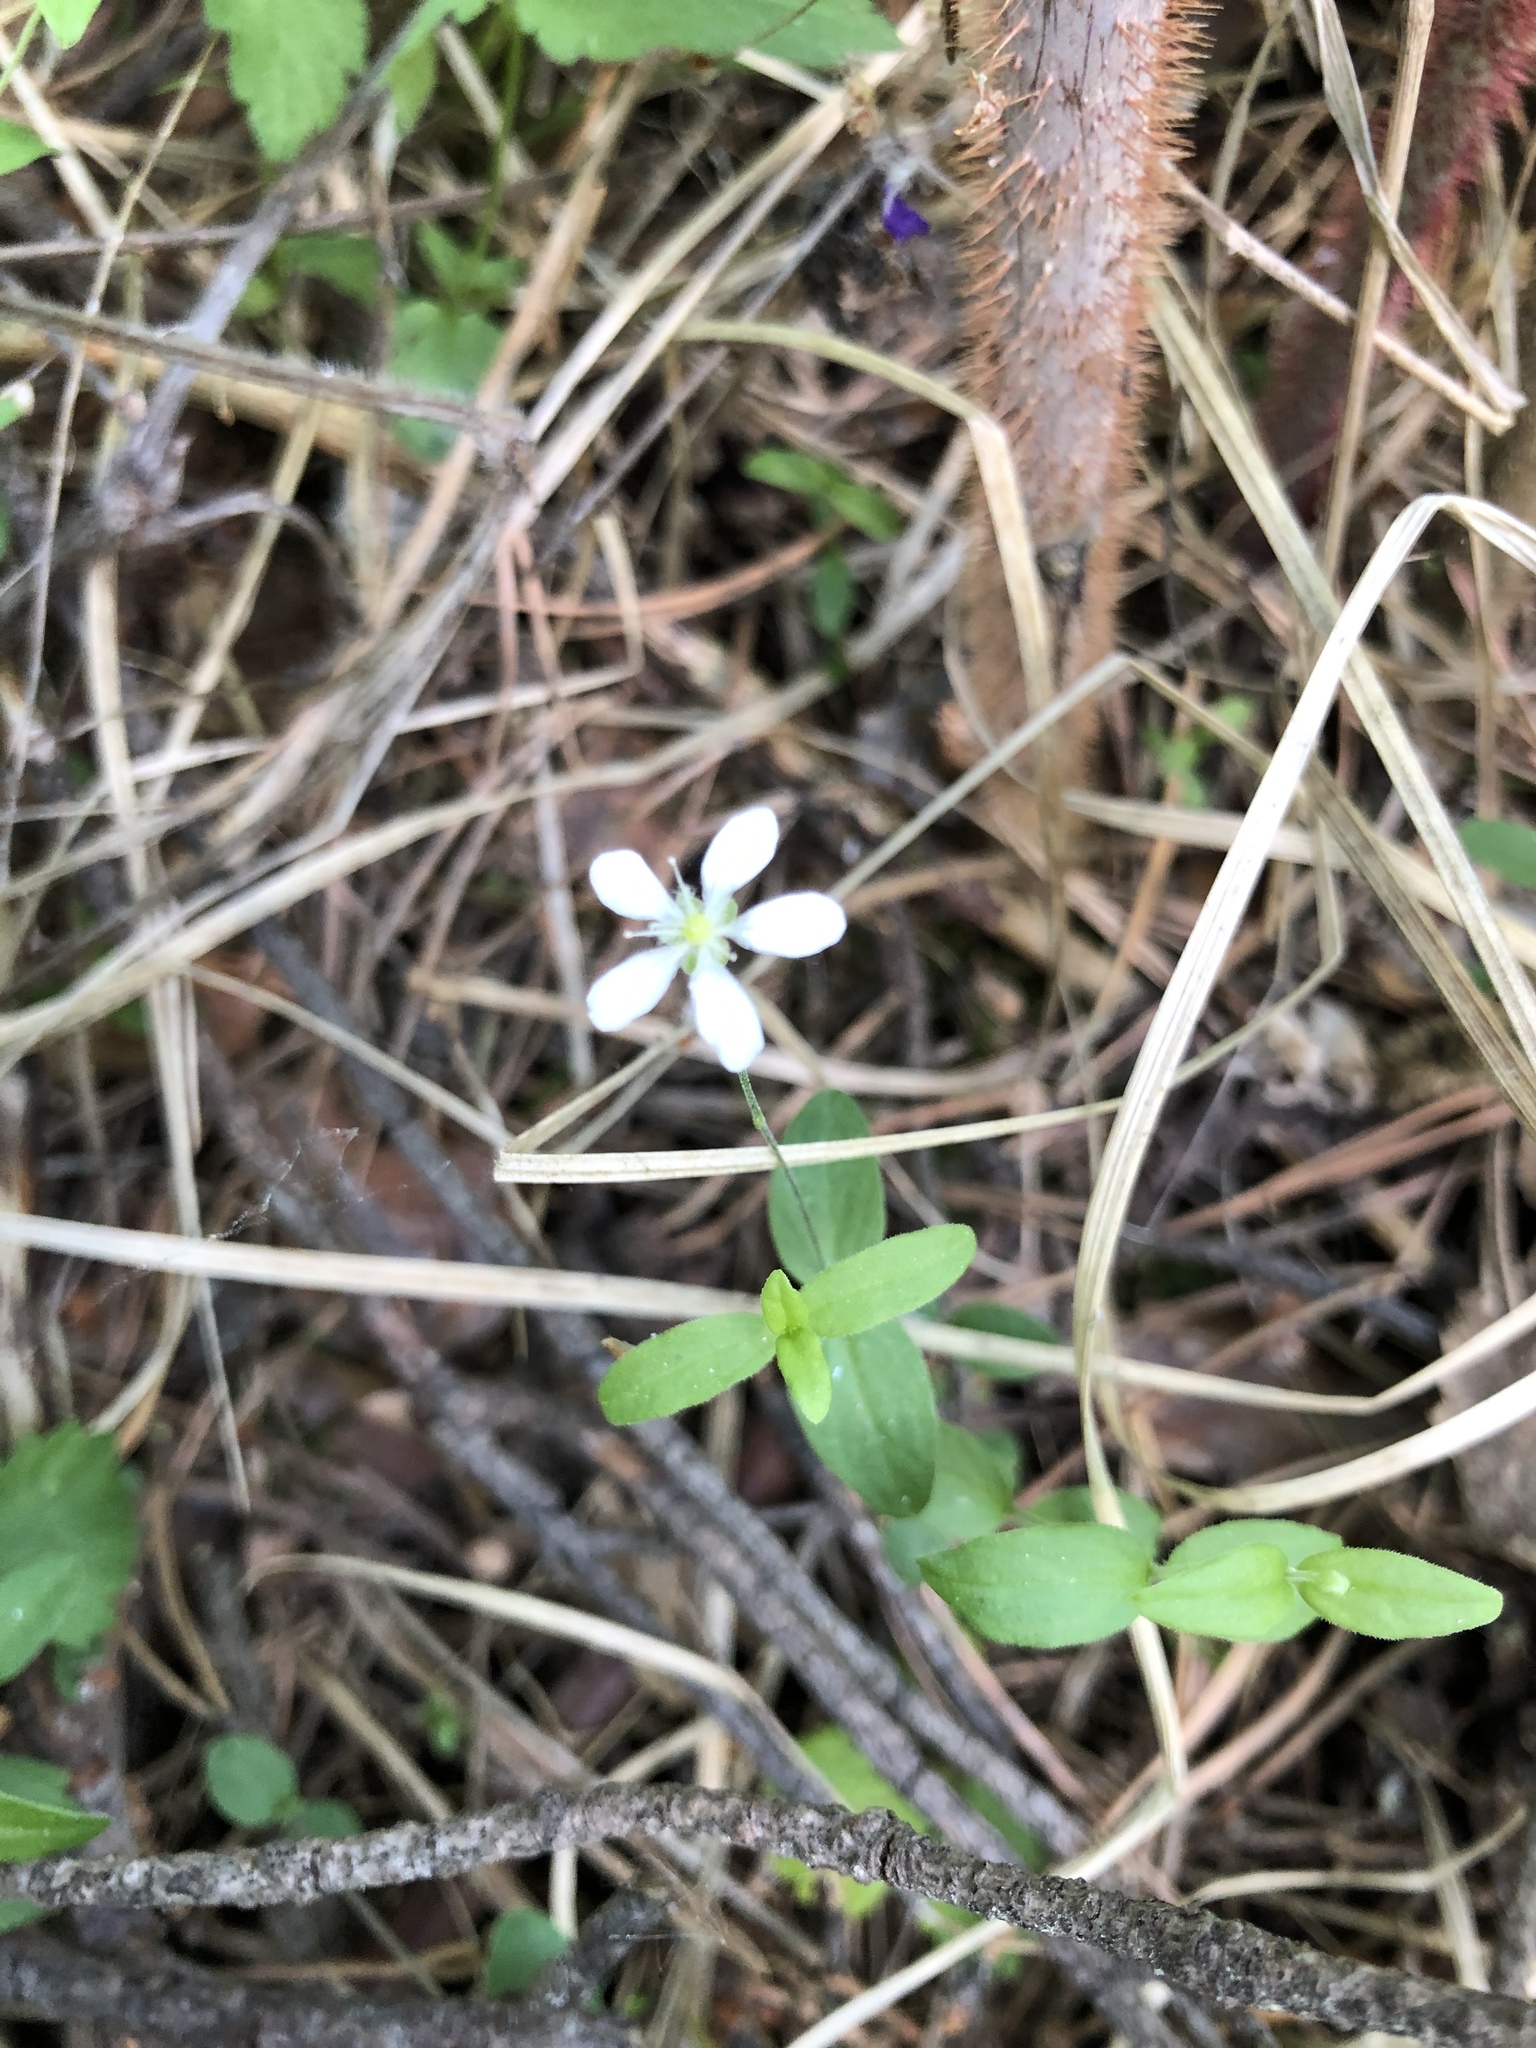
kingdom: Plantae
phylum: Tracheophyta
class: Magnoliopsida
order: Caryophyllales
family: Caryophyllaceae
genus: Moehringia
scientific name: Moehringia lateriflora
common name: Blunt-leaved sandwort
